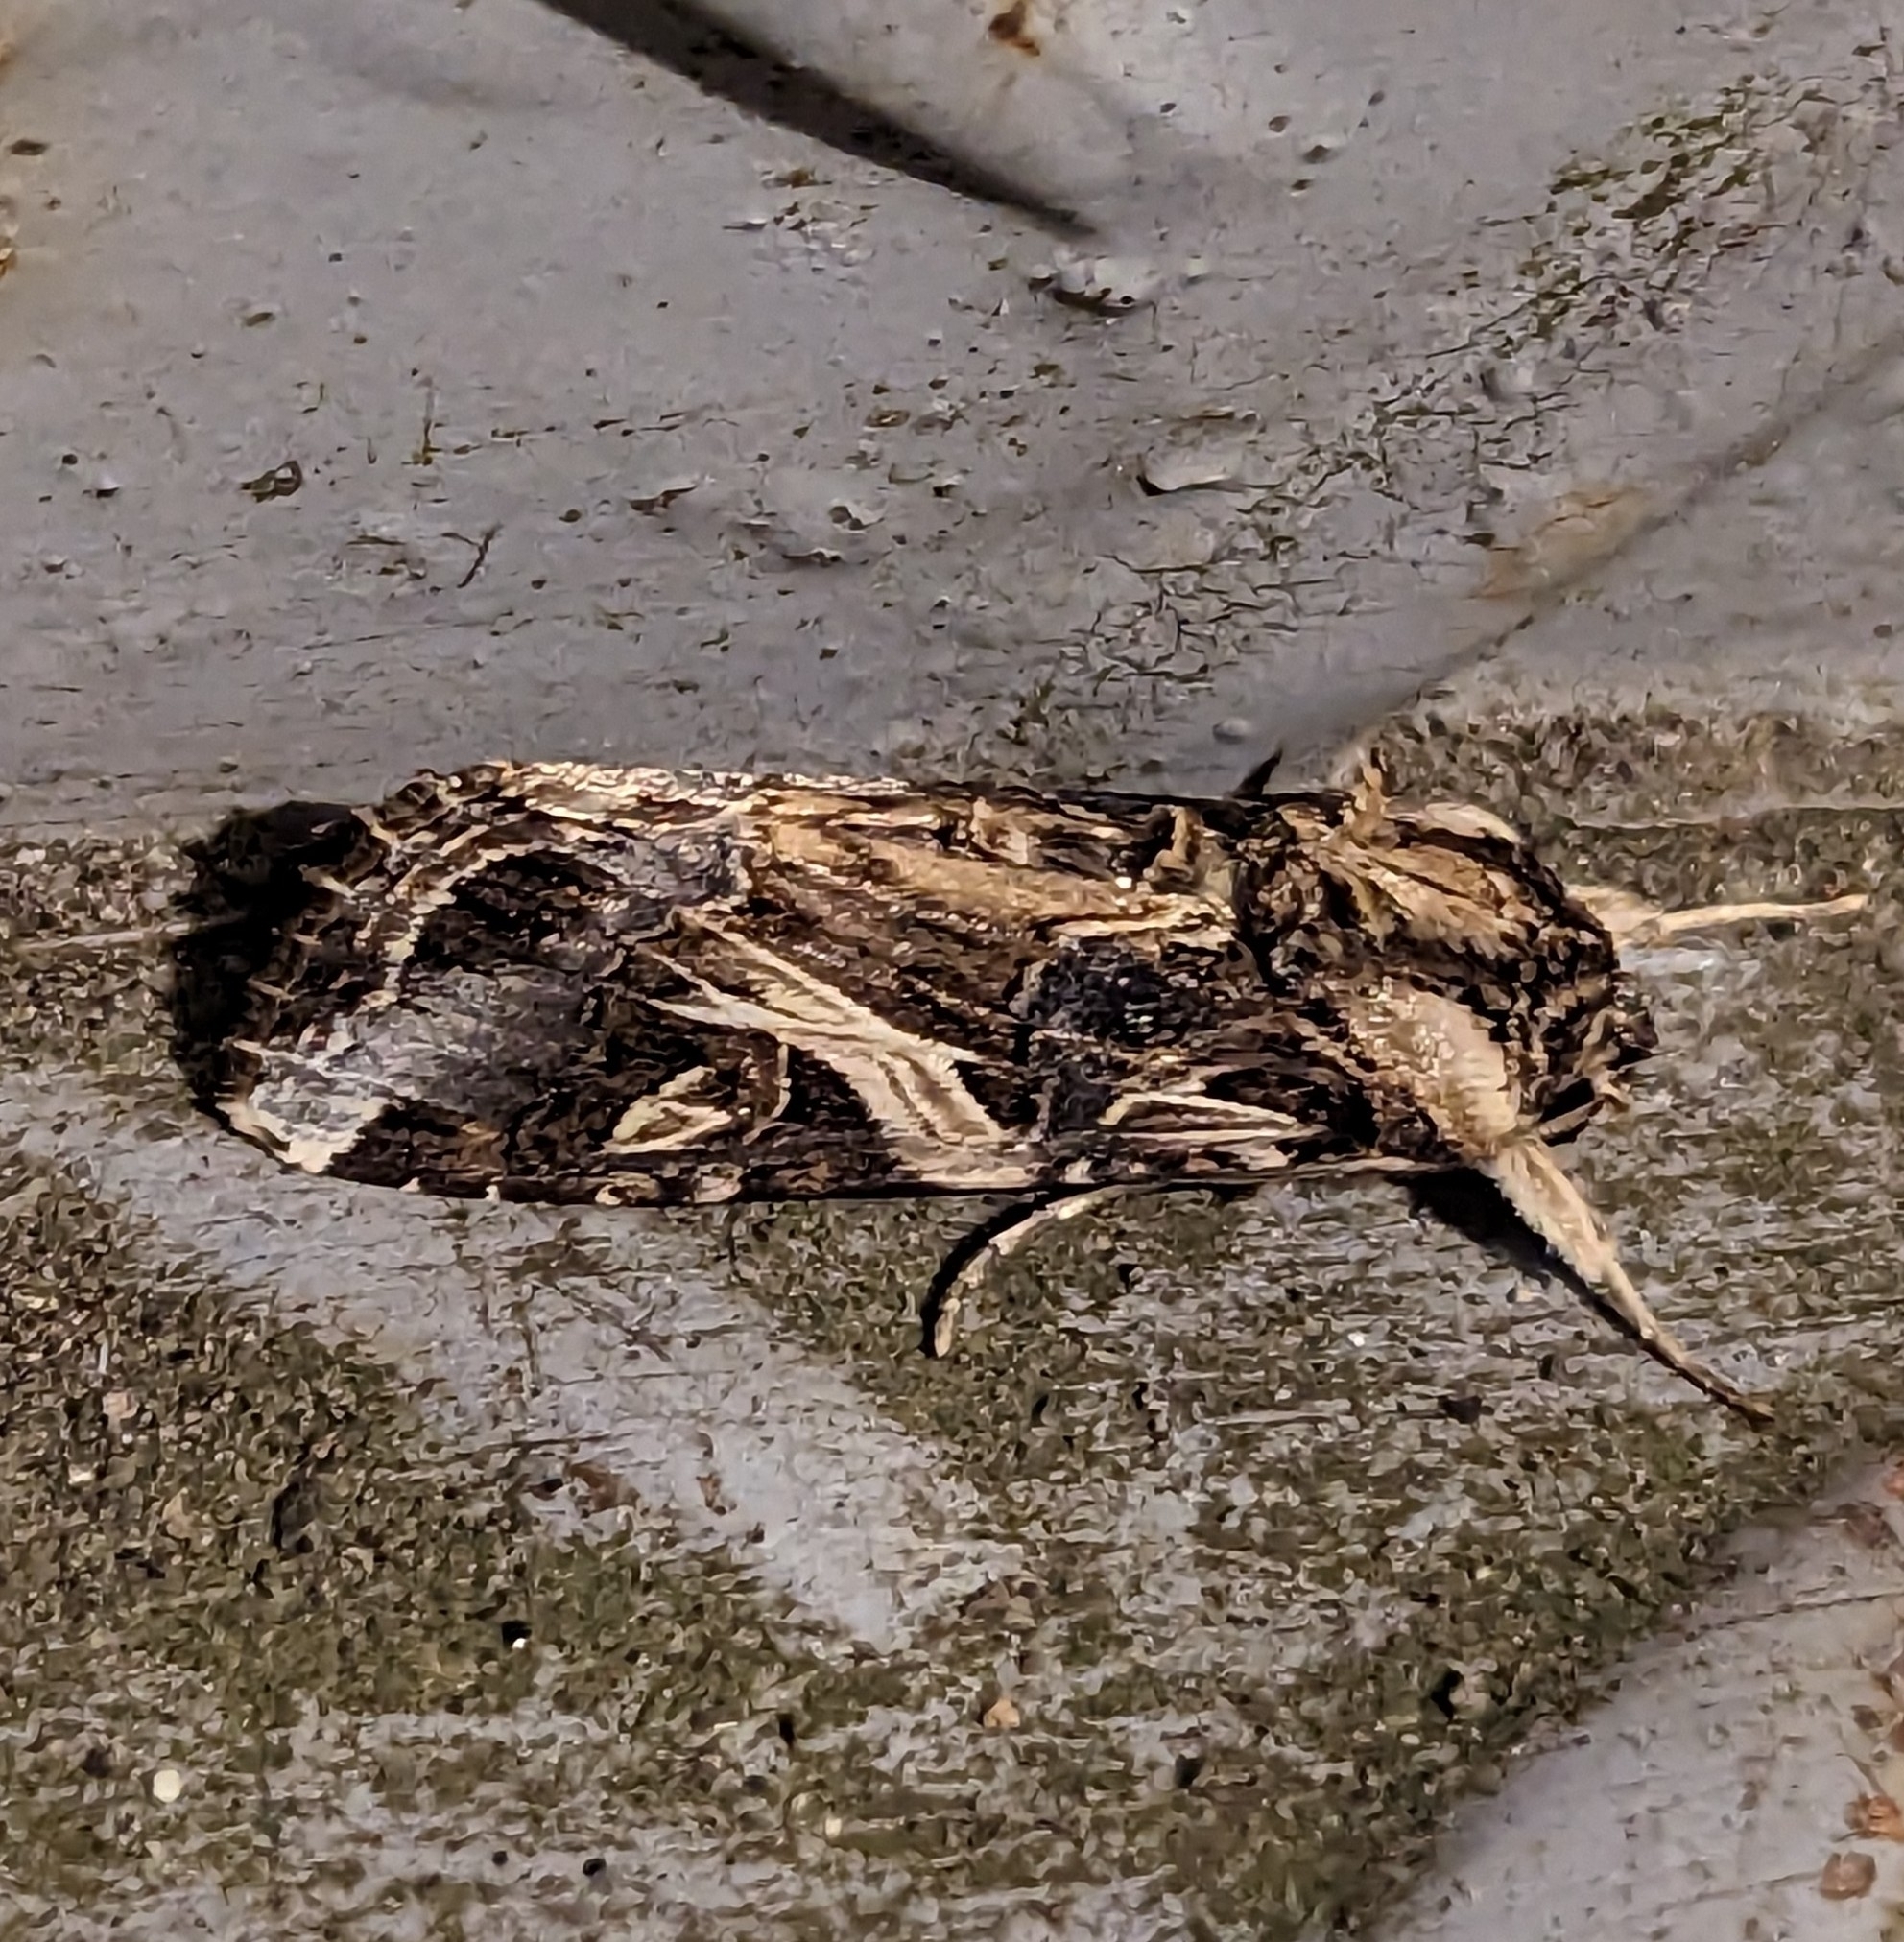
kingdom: Animalia
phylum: Arthropoda
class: Insecta
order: Lepidoptera
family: Noctuidae
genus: Spodoptera
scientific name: Spodoptera litura
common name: Asian cotton leafworm
